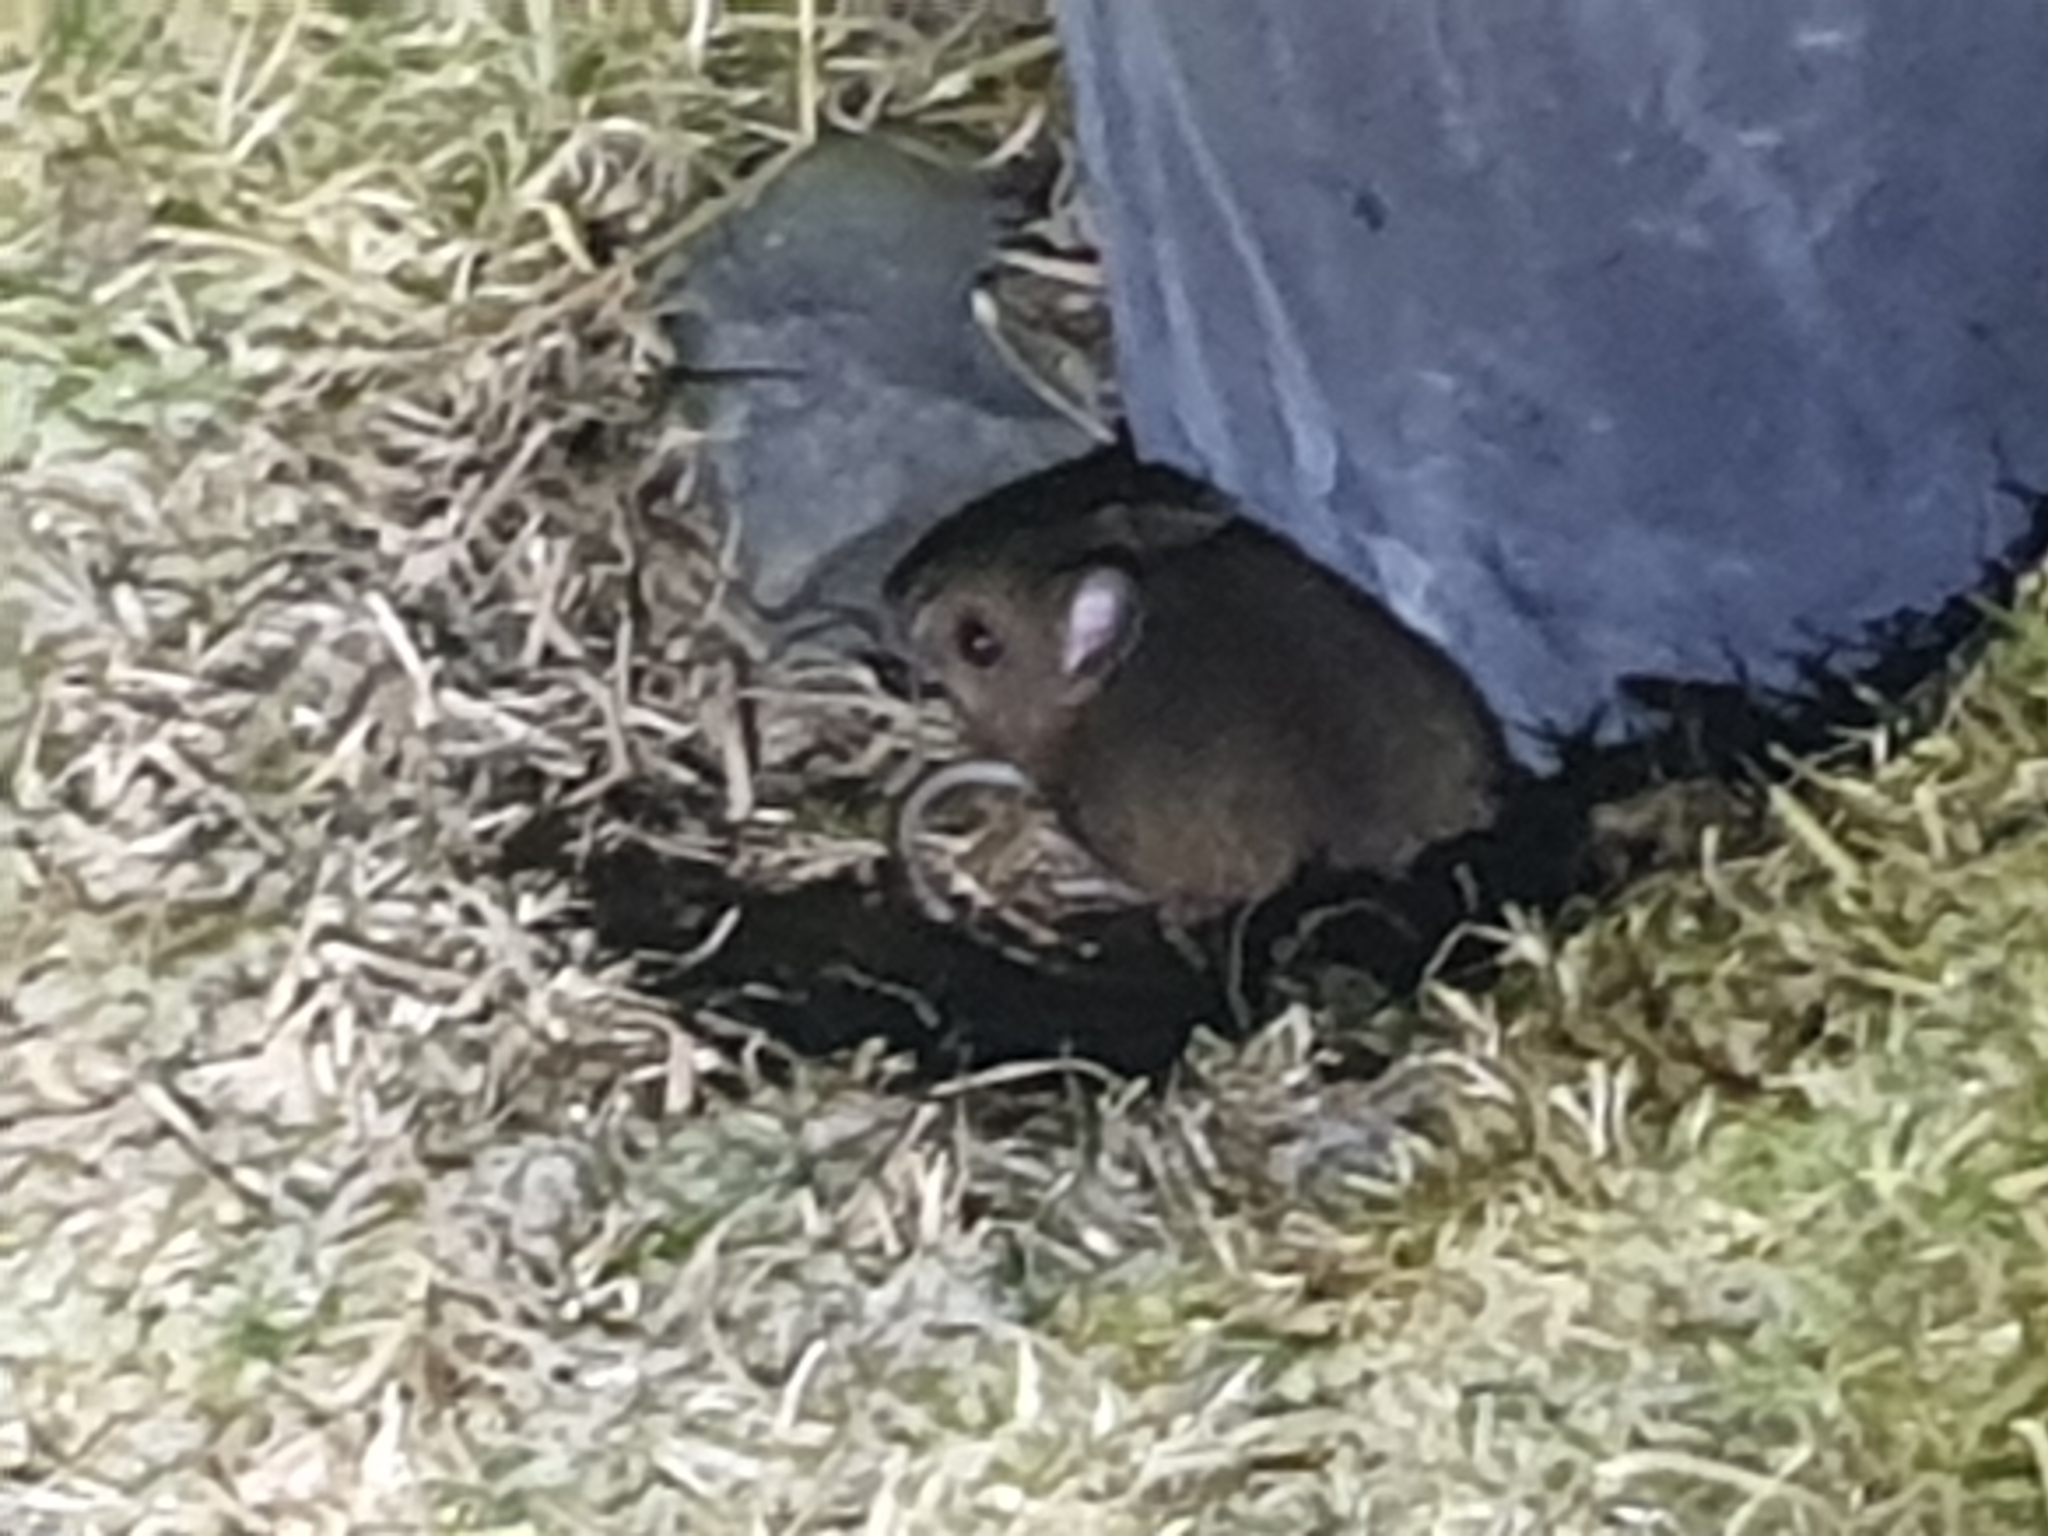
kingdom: Animalia
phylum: Chordata
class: Mammalia
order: Rodentia
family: Muridae
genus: Apodemus
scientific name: Apodemus sylvaticus
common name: Wood mouse
